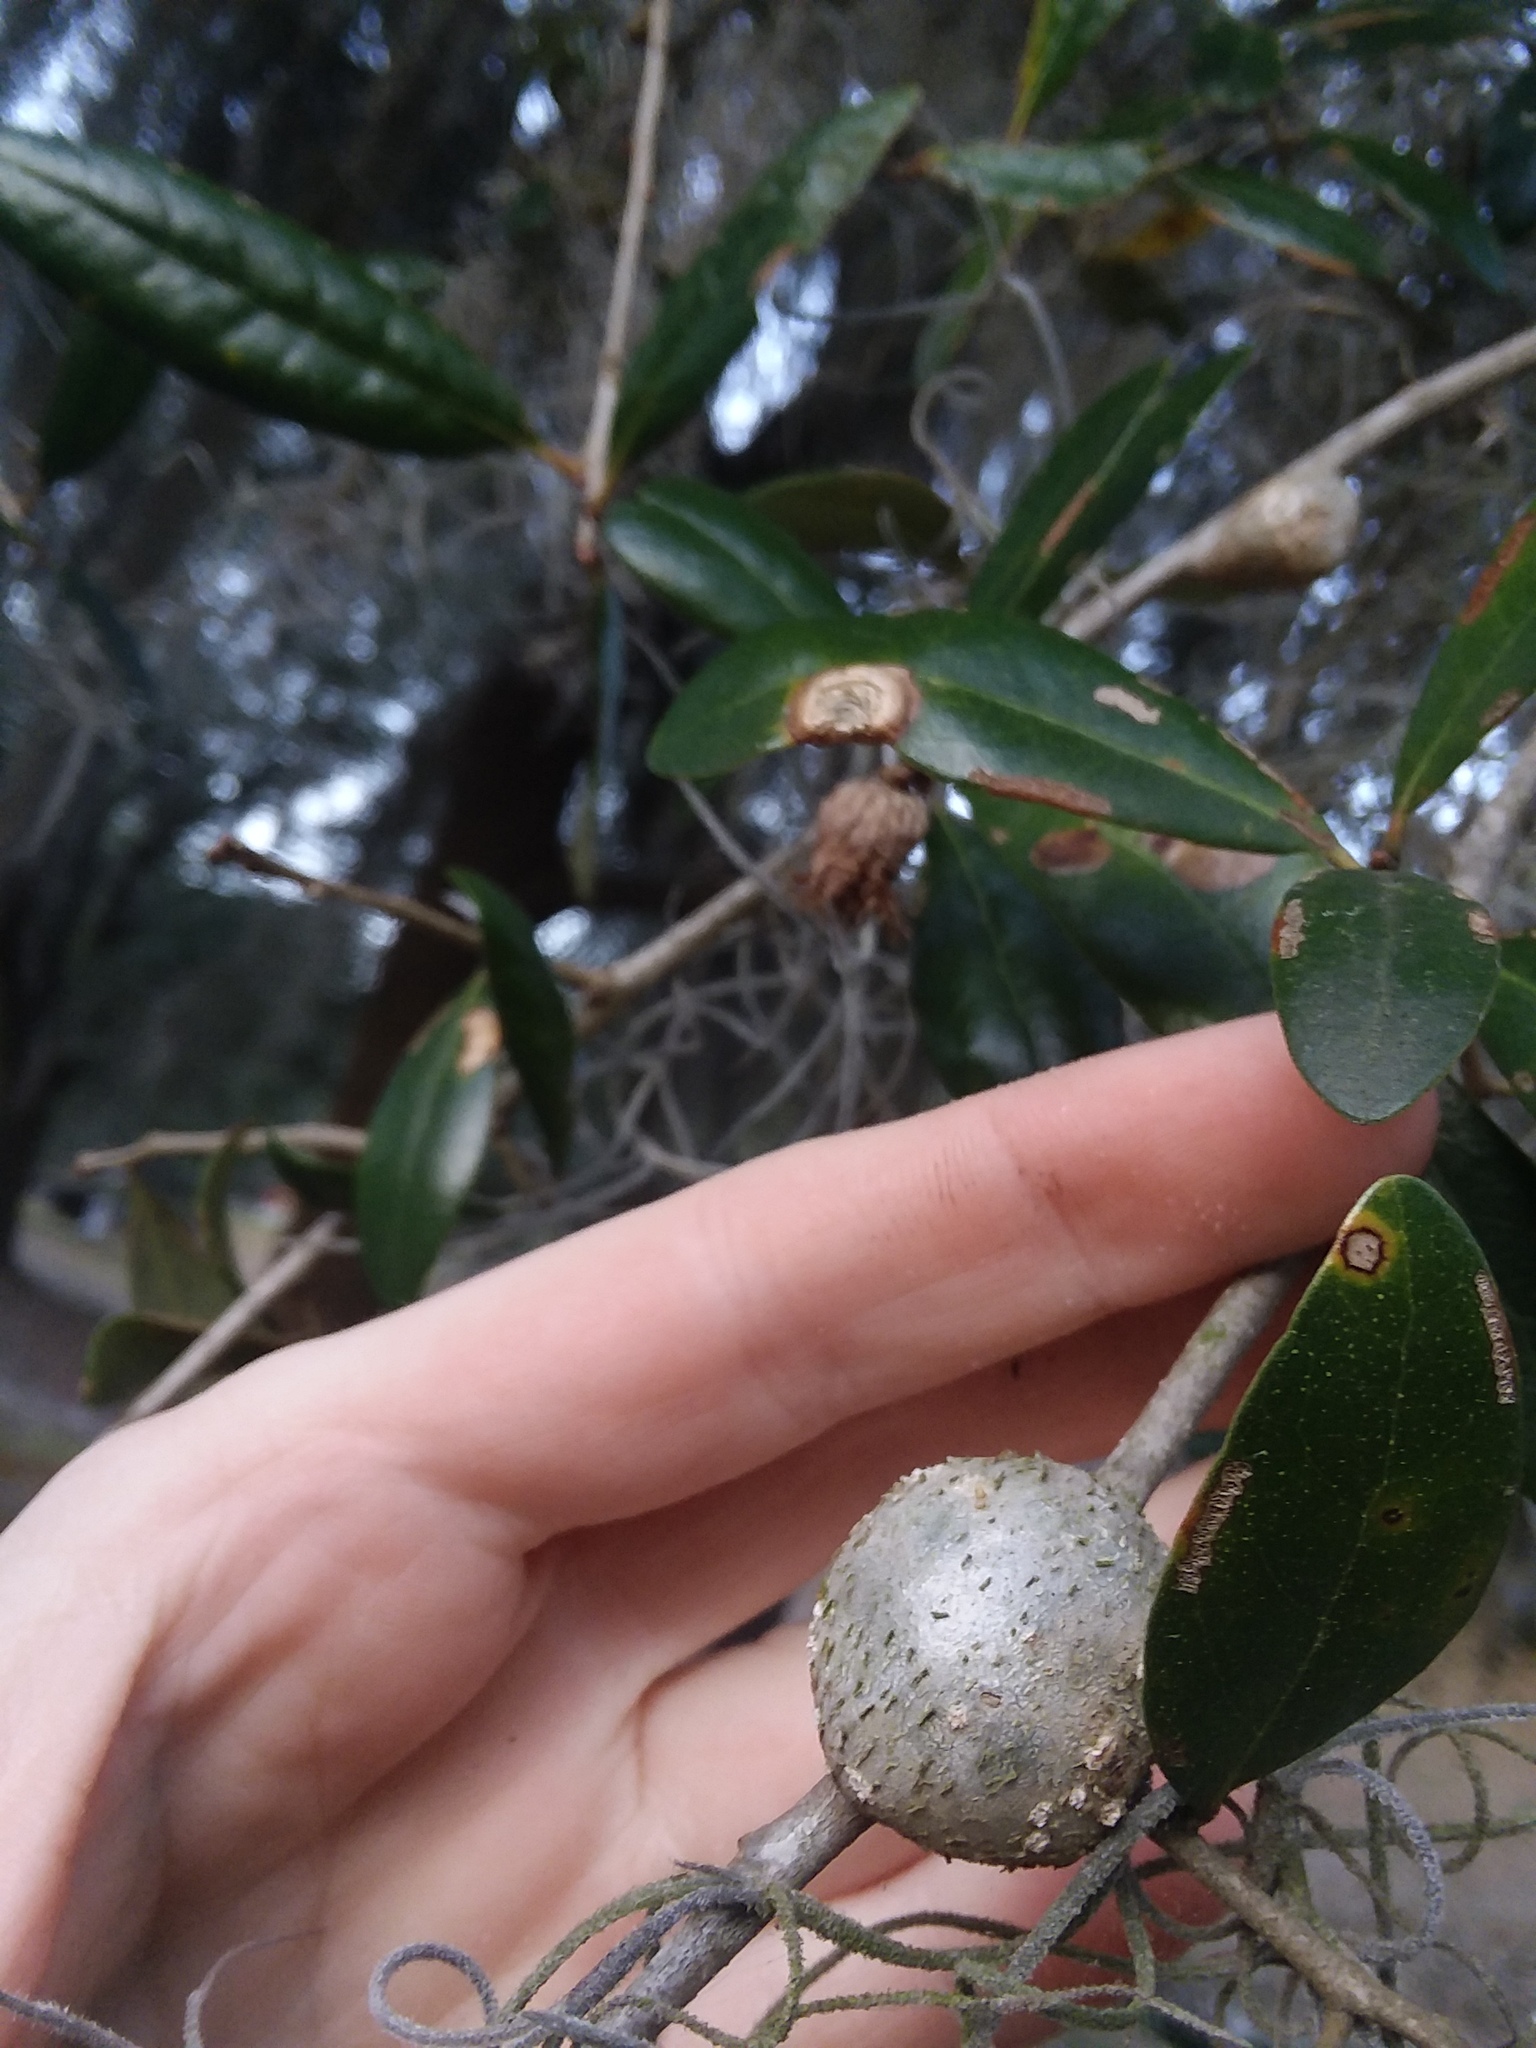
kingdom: Animalia
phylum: Arthropoda
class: Insecta
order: Hymenoptera
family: Cynipidae
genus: Callirhytis
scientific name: Callirhytis
